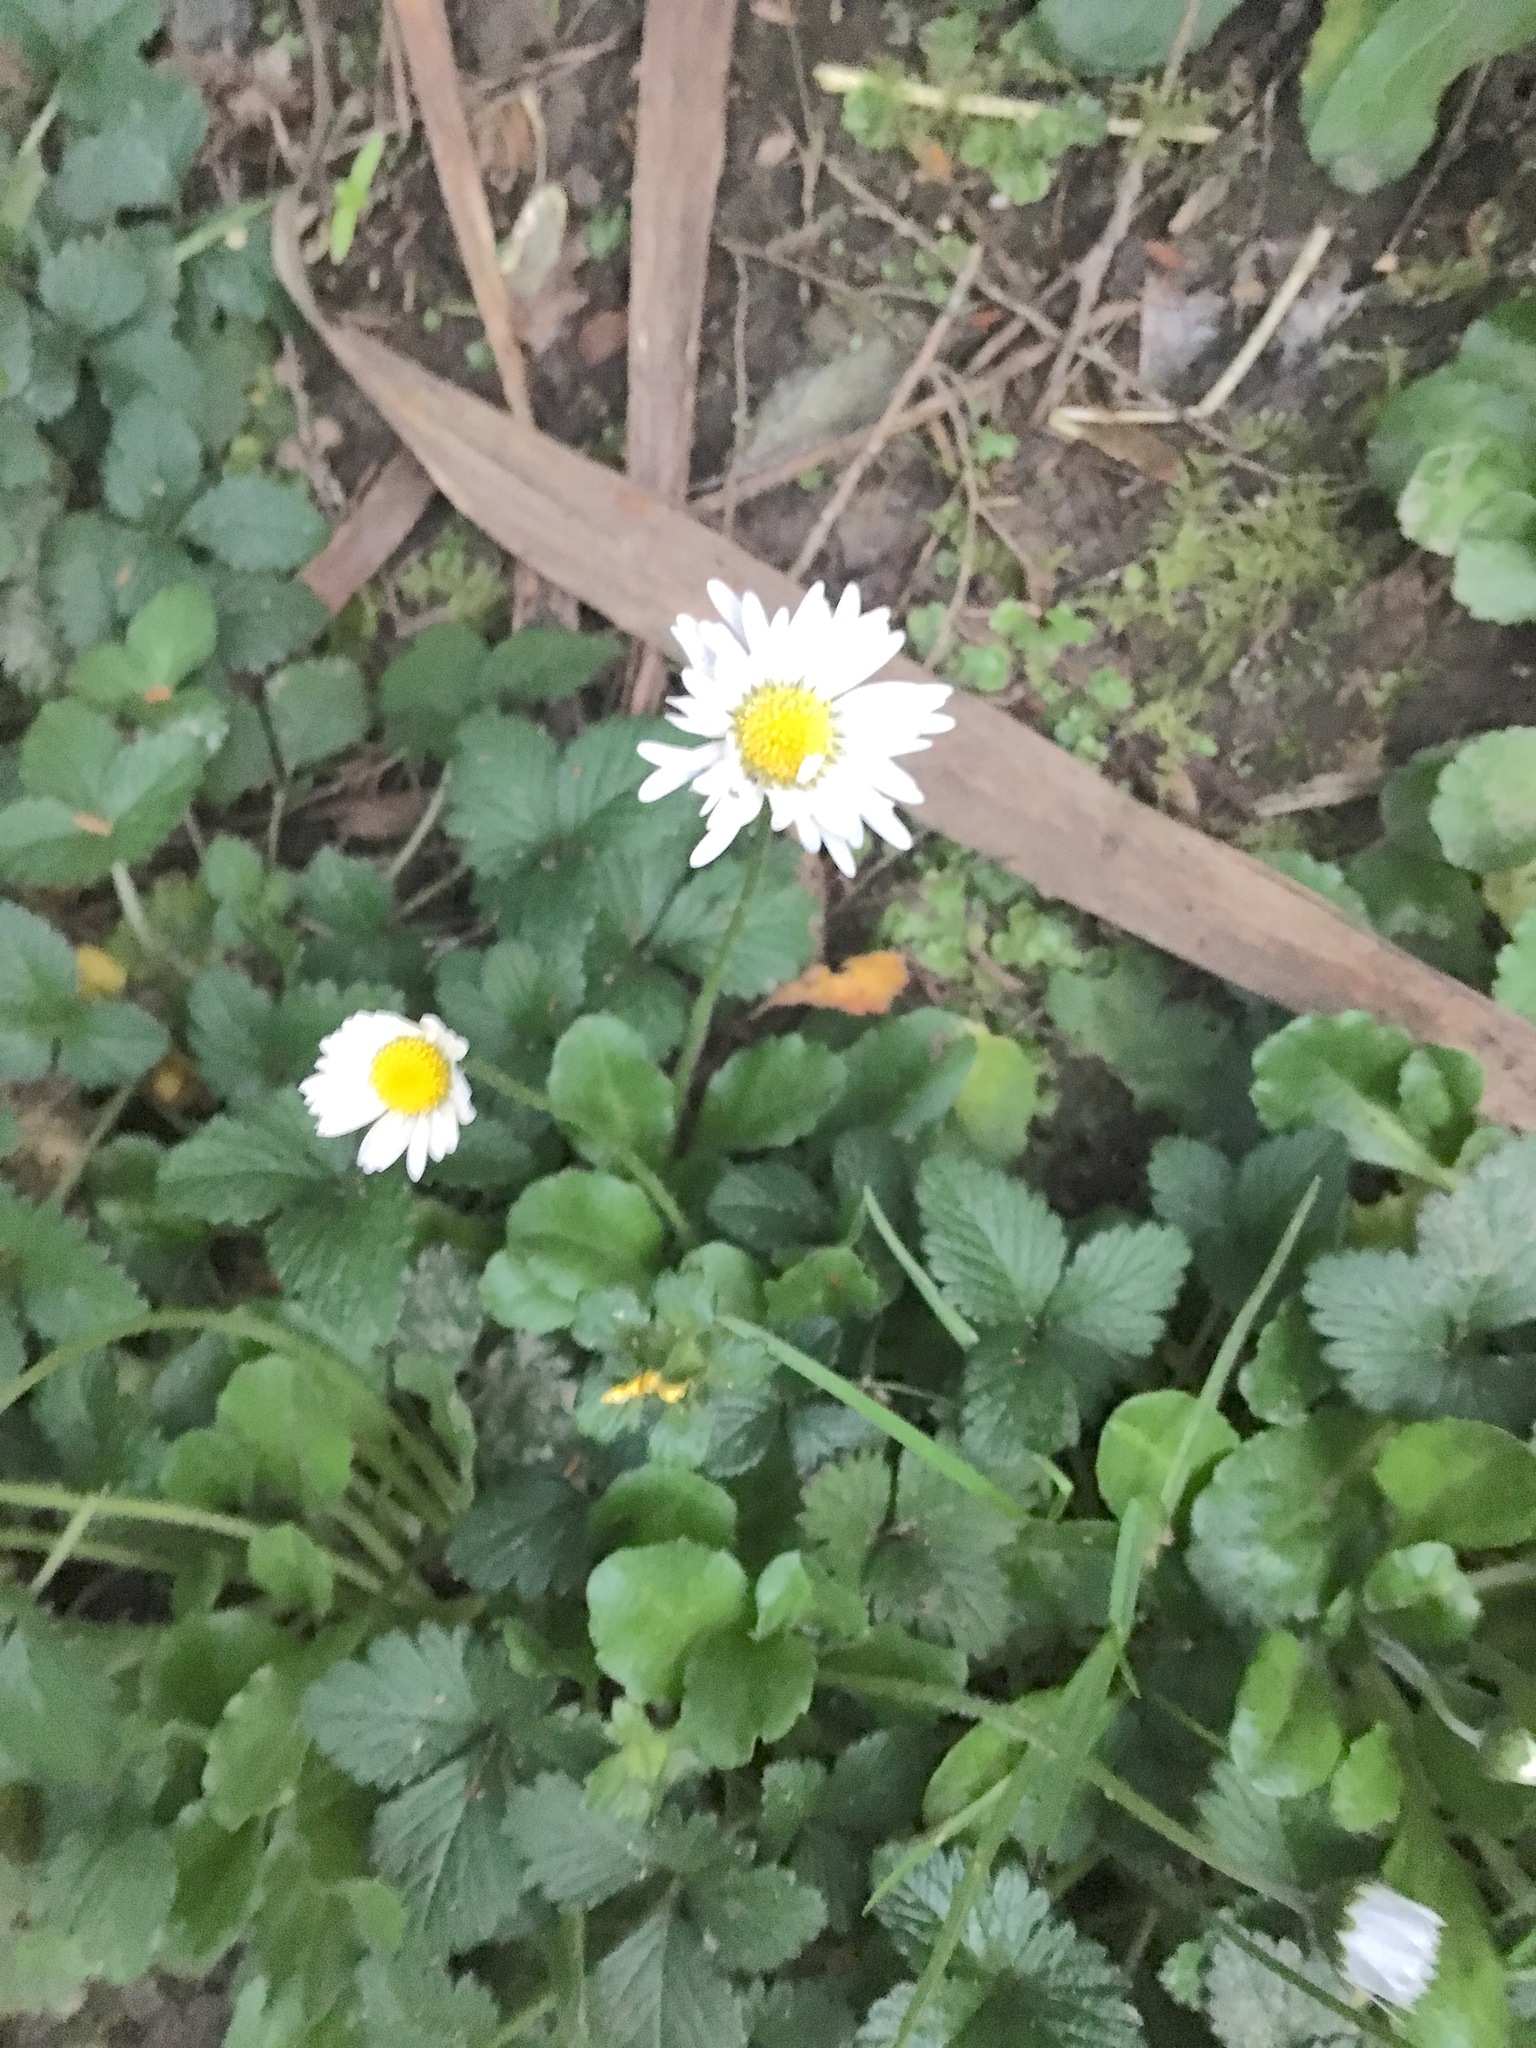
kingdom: Plantae
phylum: Tracheophyta
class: Magnoliopsida
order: Asterales
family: Asteraceae
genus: Bellis
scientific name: Bellis perennis
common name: Lawndaisy
